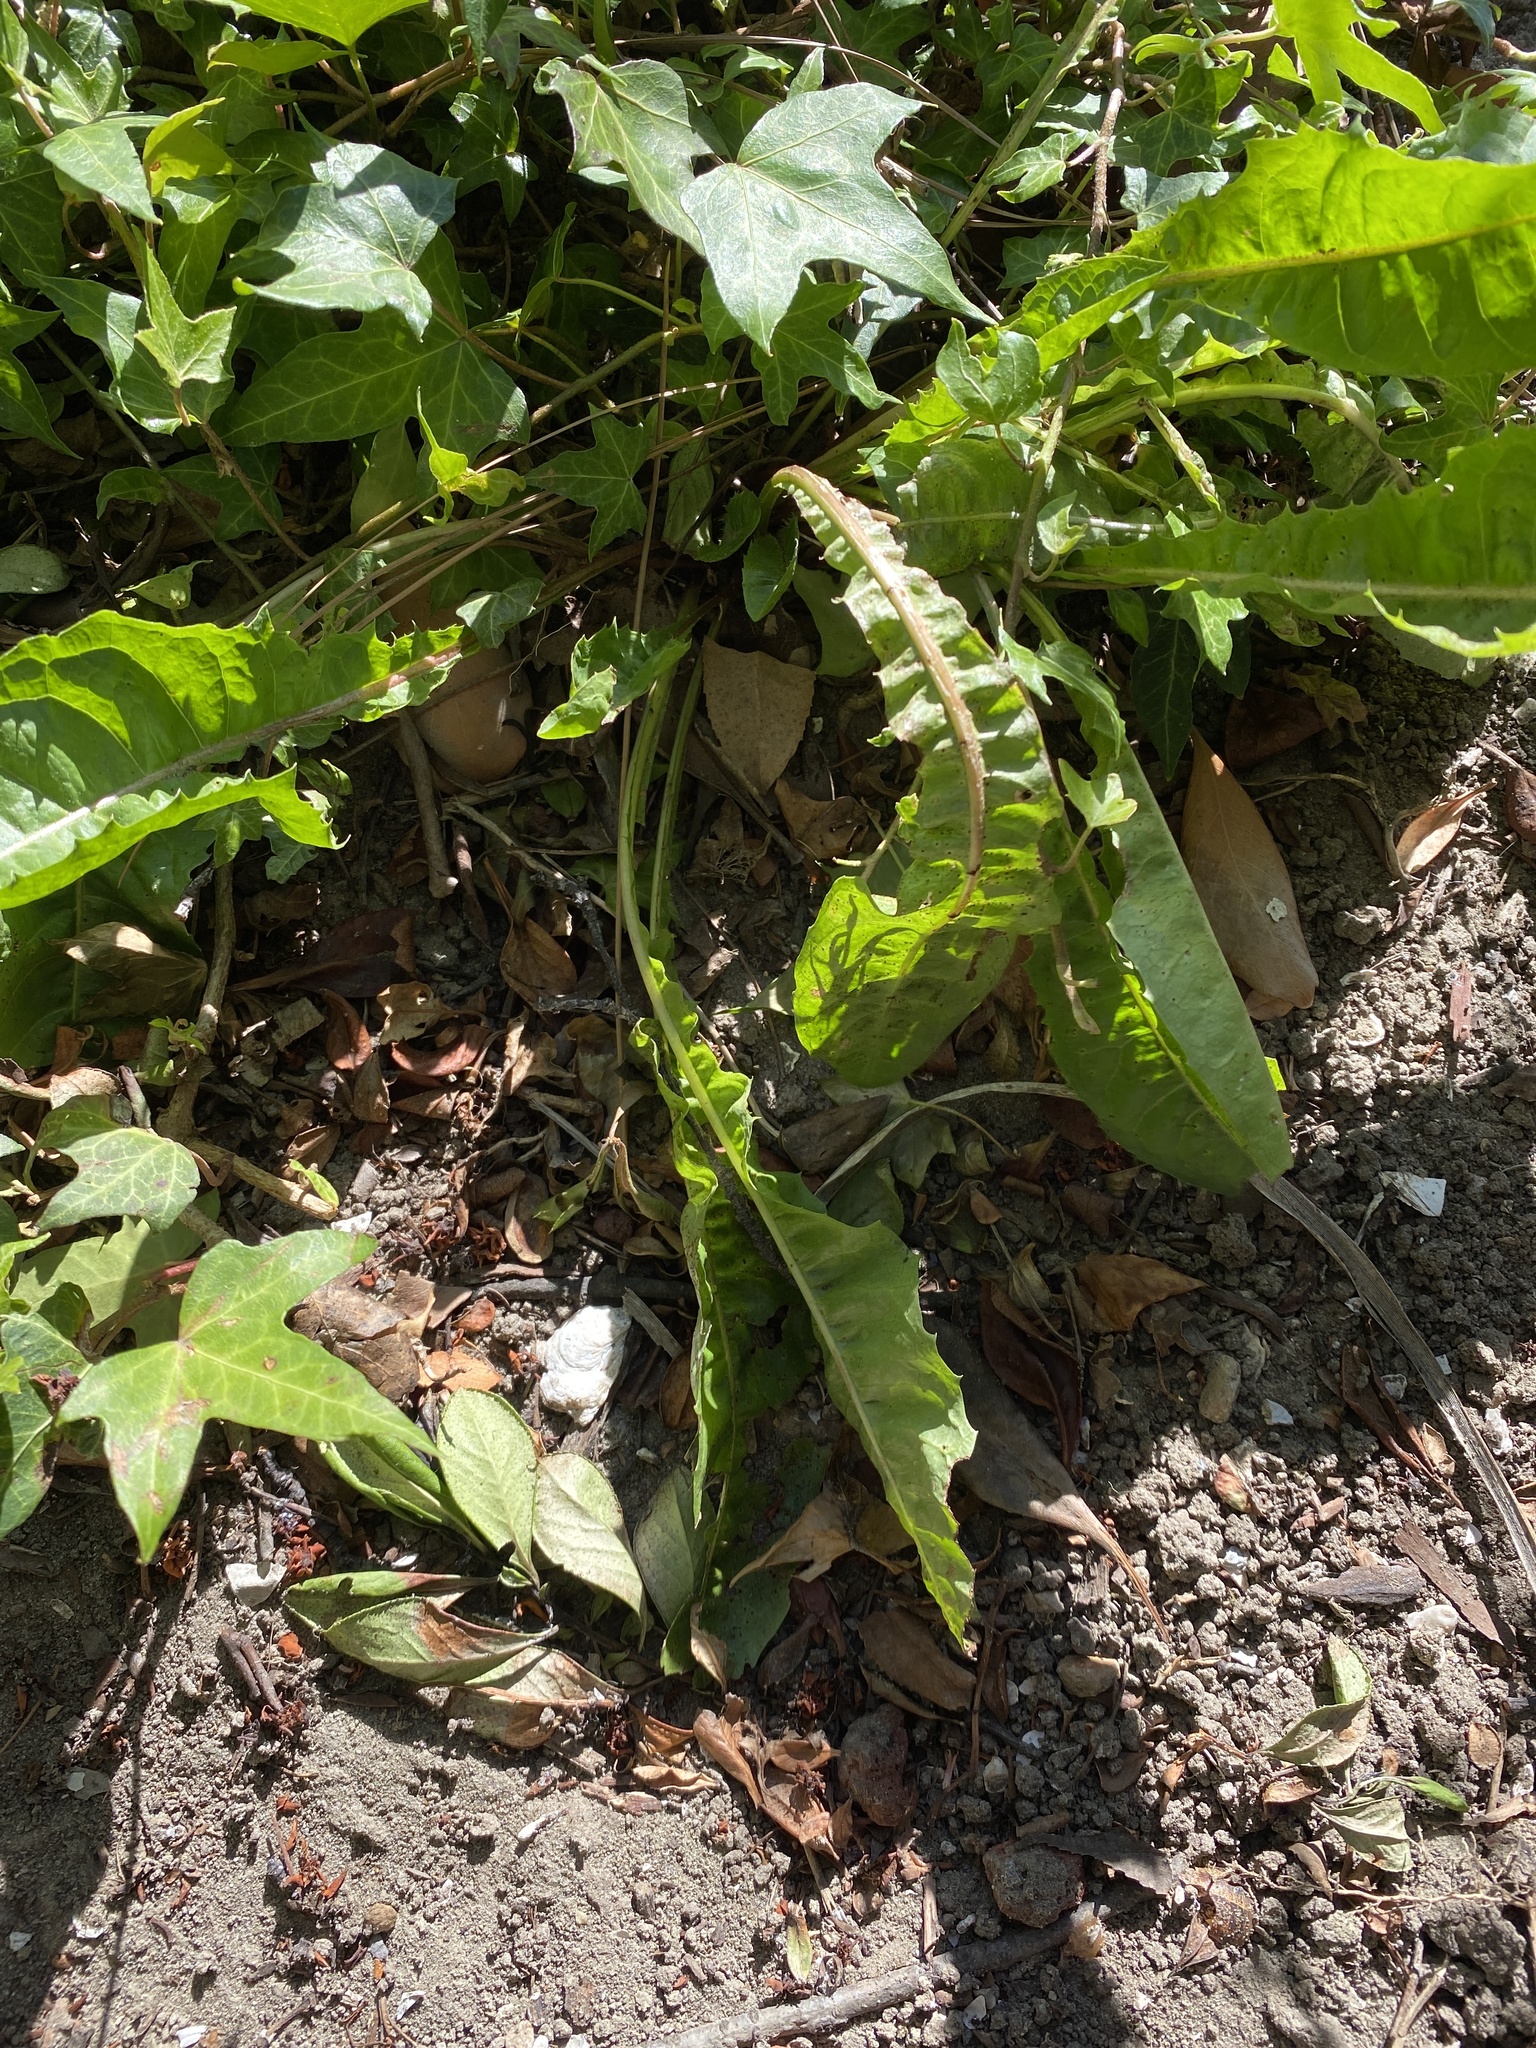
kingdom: Plantae
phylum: Tracheophyta
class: Magnoliopsida
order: Asterales
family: Asteraceae
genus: Taraxacum
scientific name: Taraxacum officinale
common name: Common dandelion
